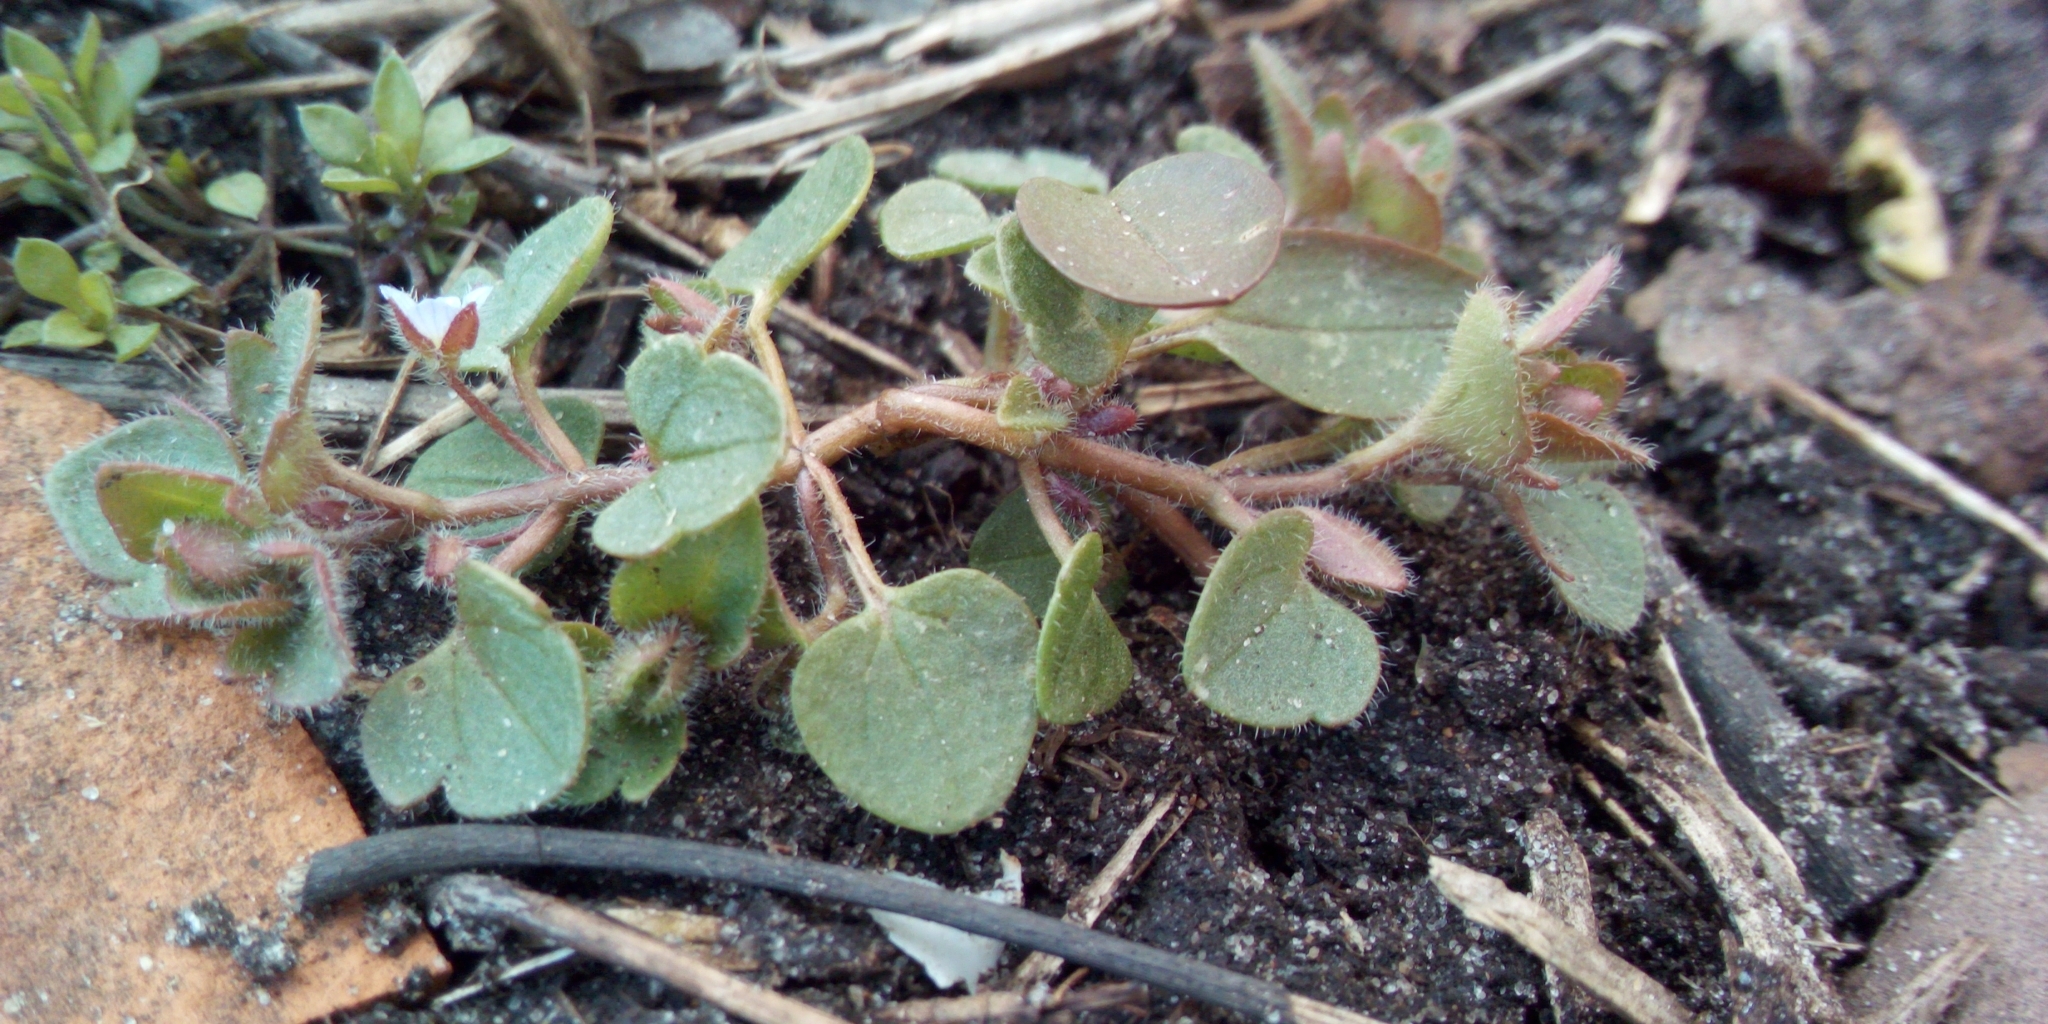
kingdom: Plantae
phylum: Tracheophyta
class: Magnoliopsida
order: Lamiales
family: Plantaginaceae
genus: Veronica
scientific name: Veronica sublobata
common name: False ivy-leaved speedwell
